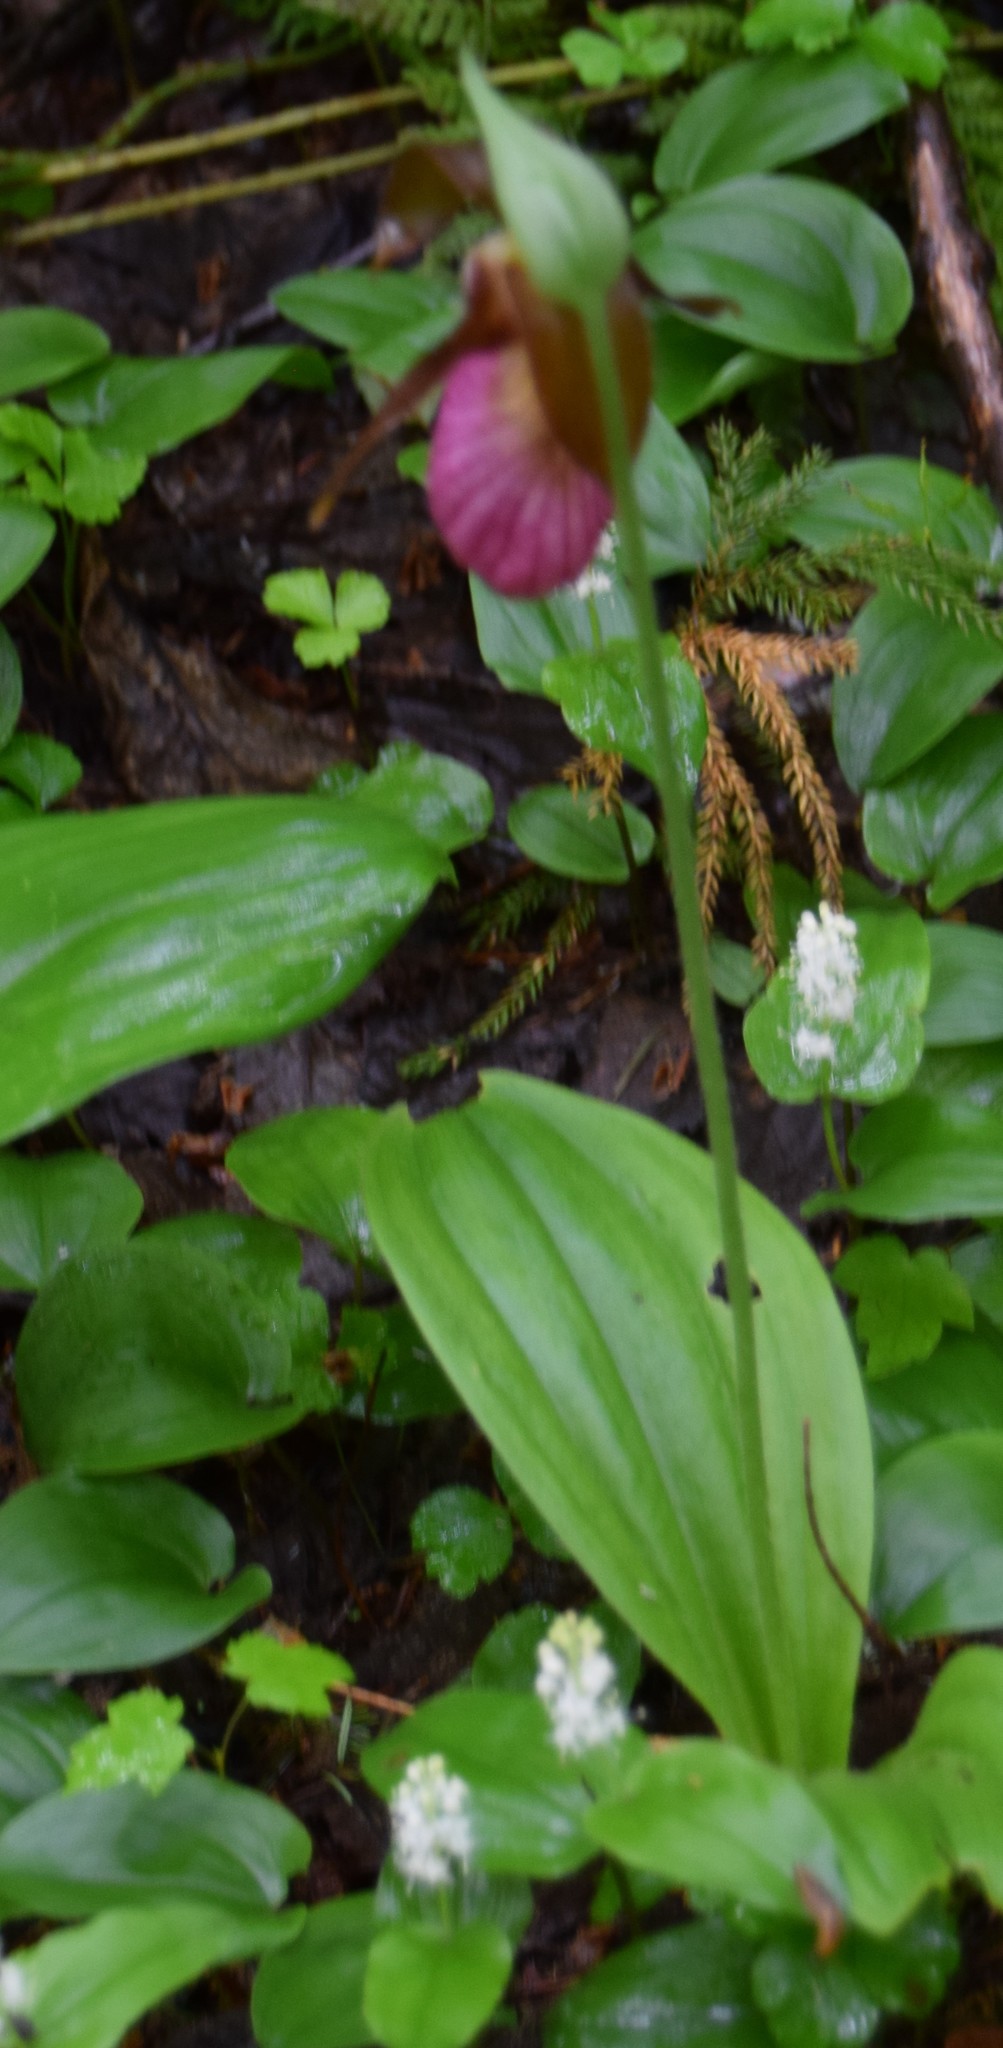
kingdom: Plantae
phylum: Tracheophyta
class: Liliopsida
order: Asparagales
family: Orchidaceae
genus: Cypripedium
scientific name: Cypripedium acaule
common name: Pink lady's-slipper
